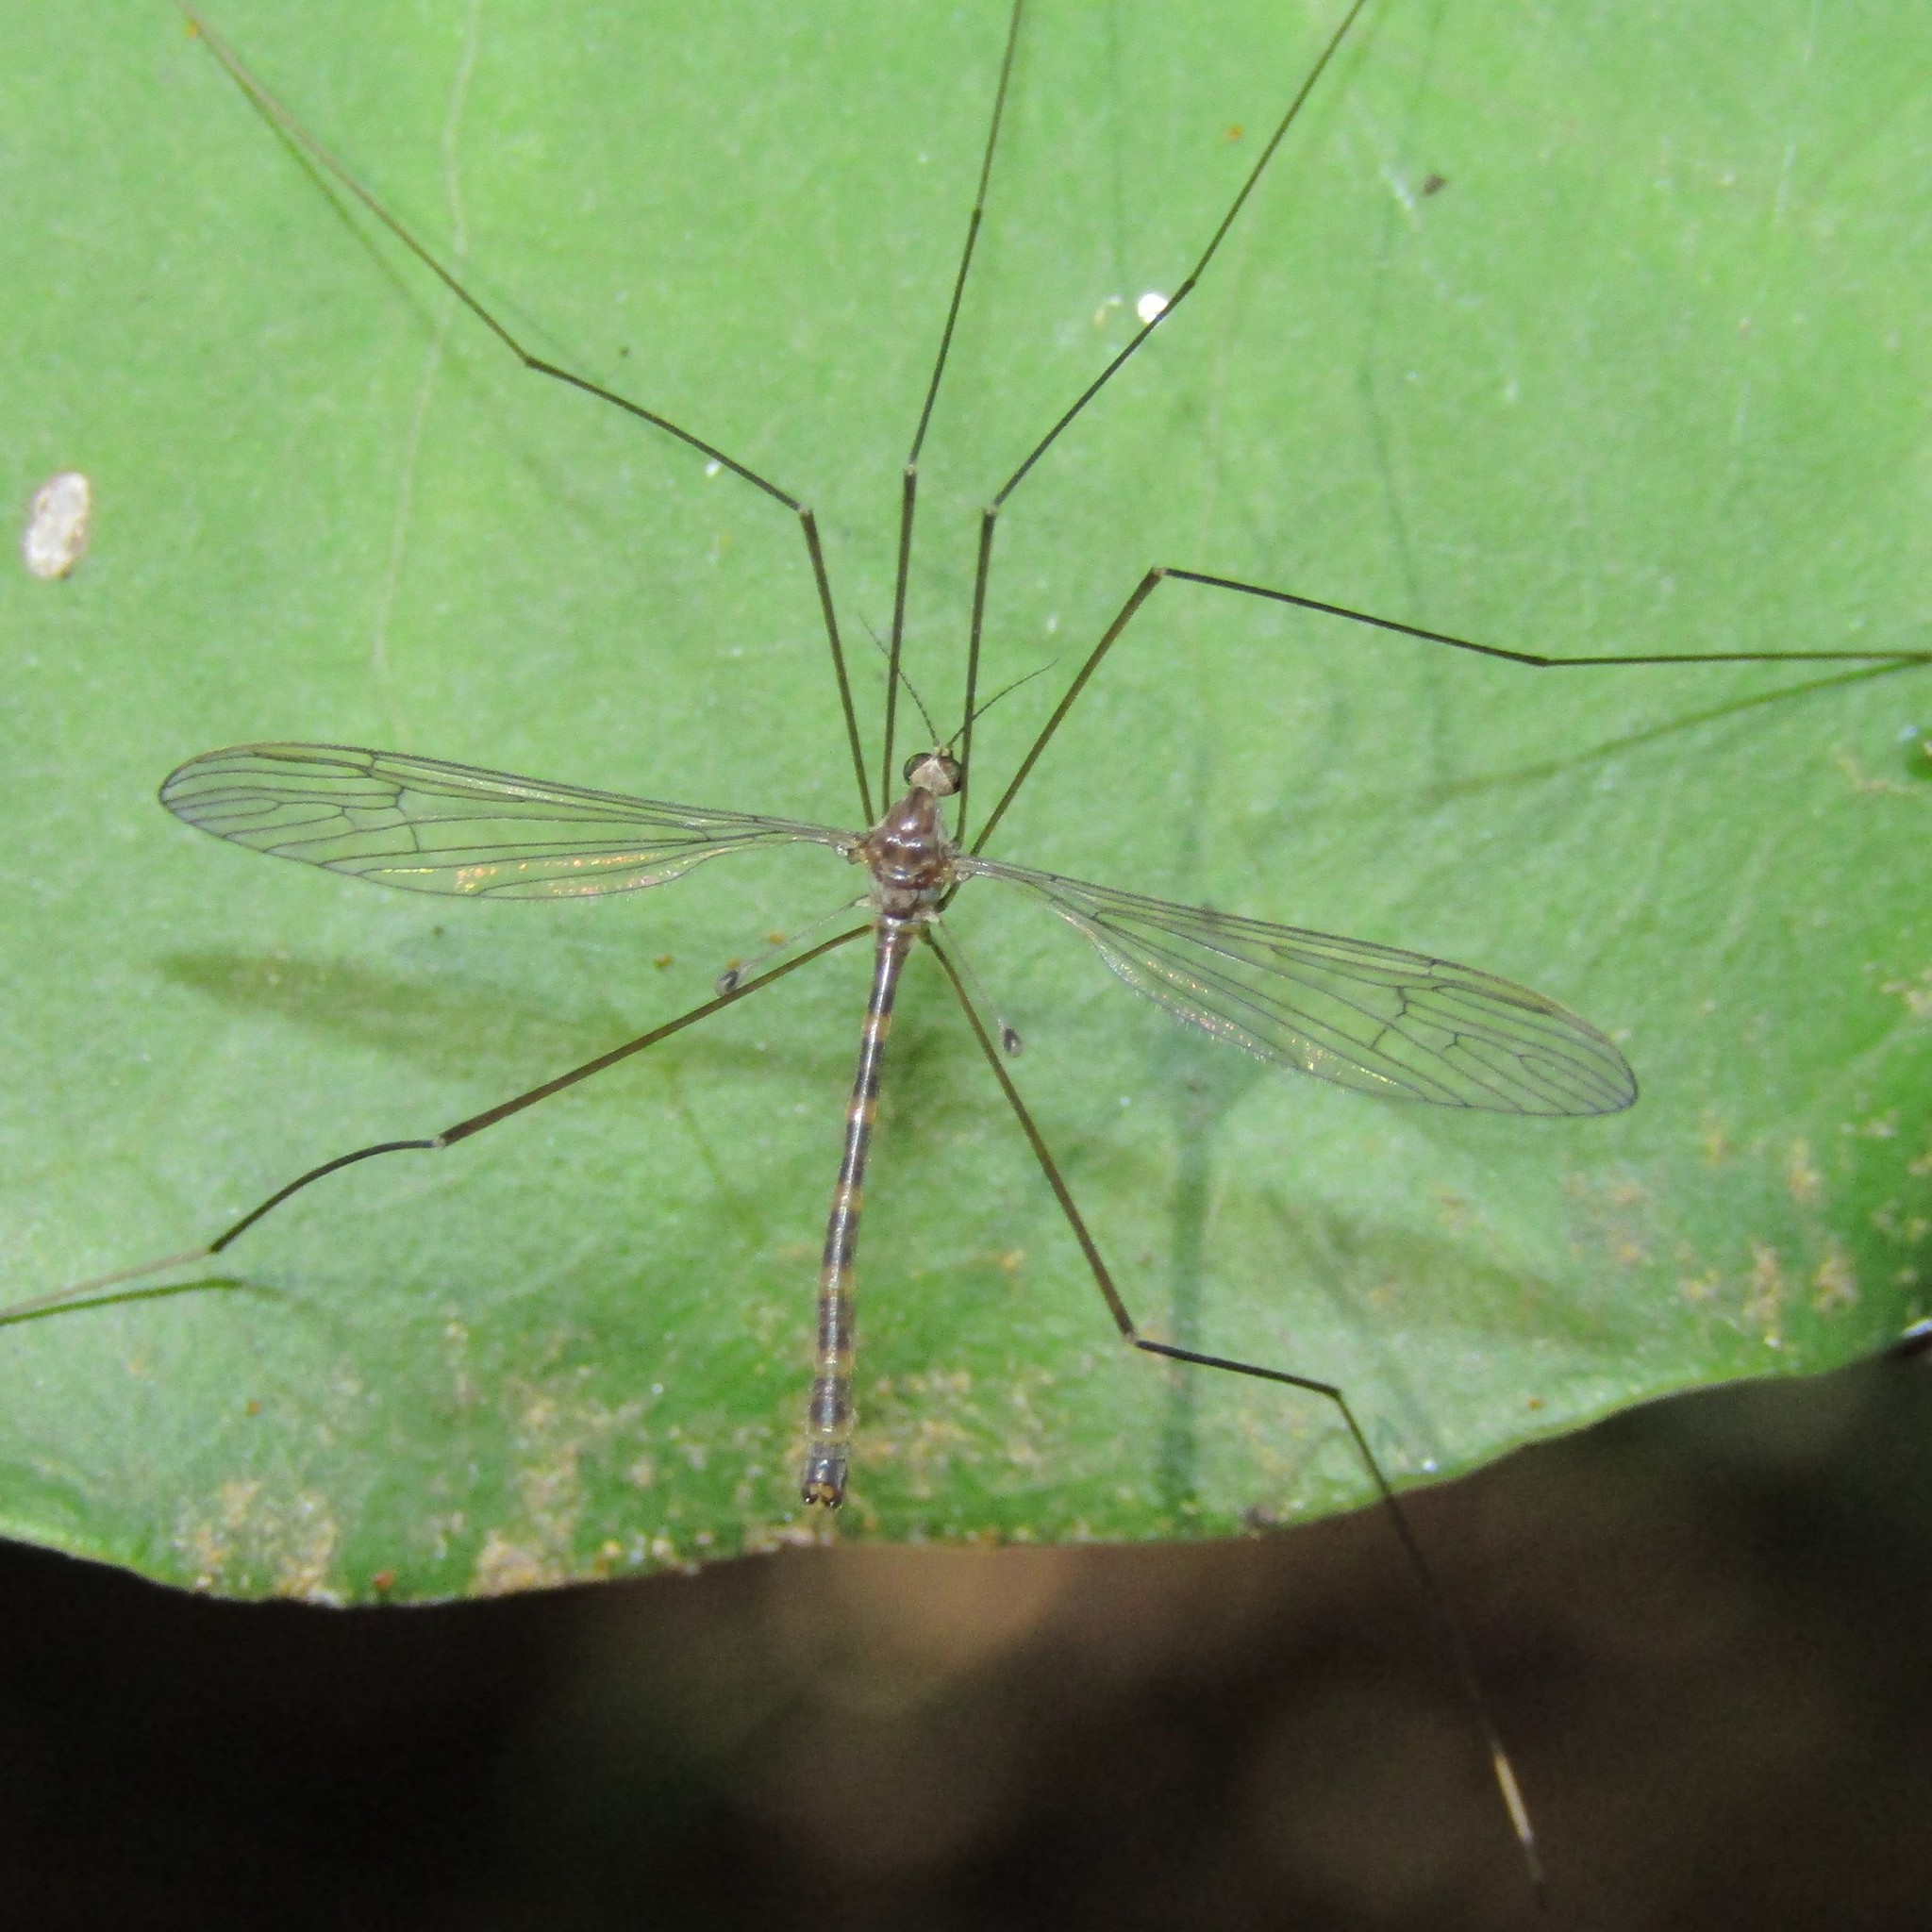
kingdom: Animalia
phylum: Arthropoda
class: Insecta
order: Diptera
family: Limoniidae
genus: Limnophilella
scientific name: Limnophilella delicatula
